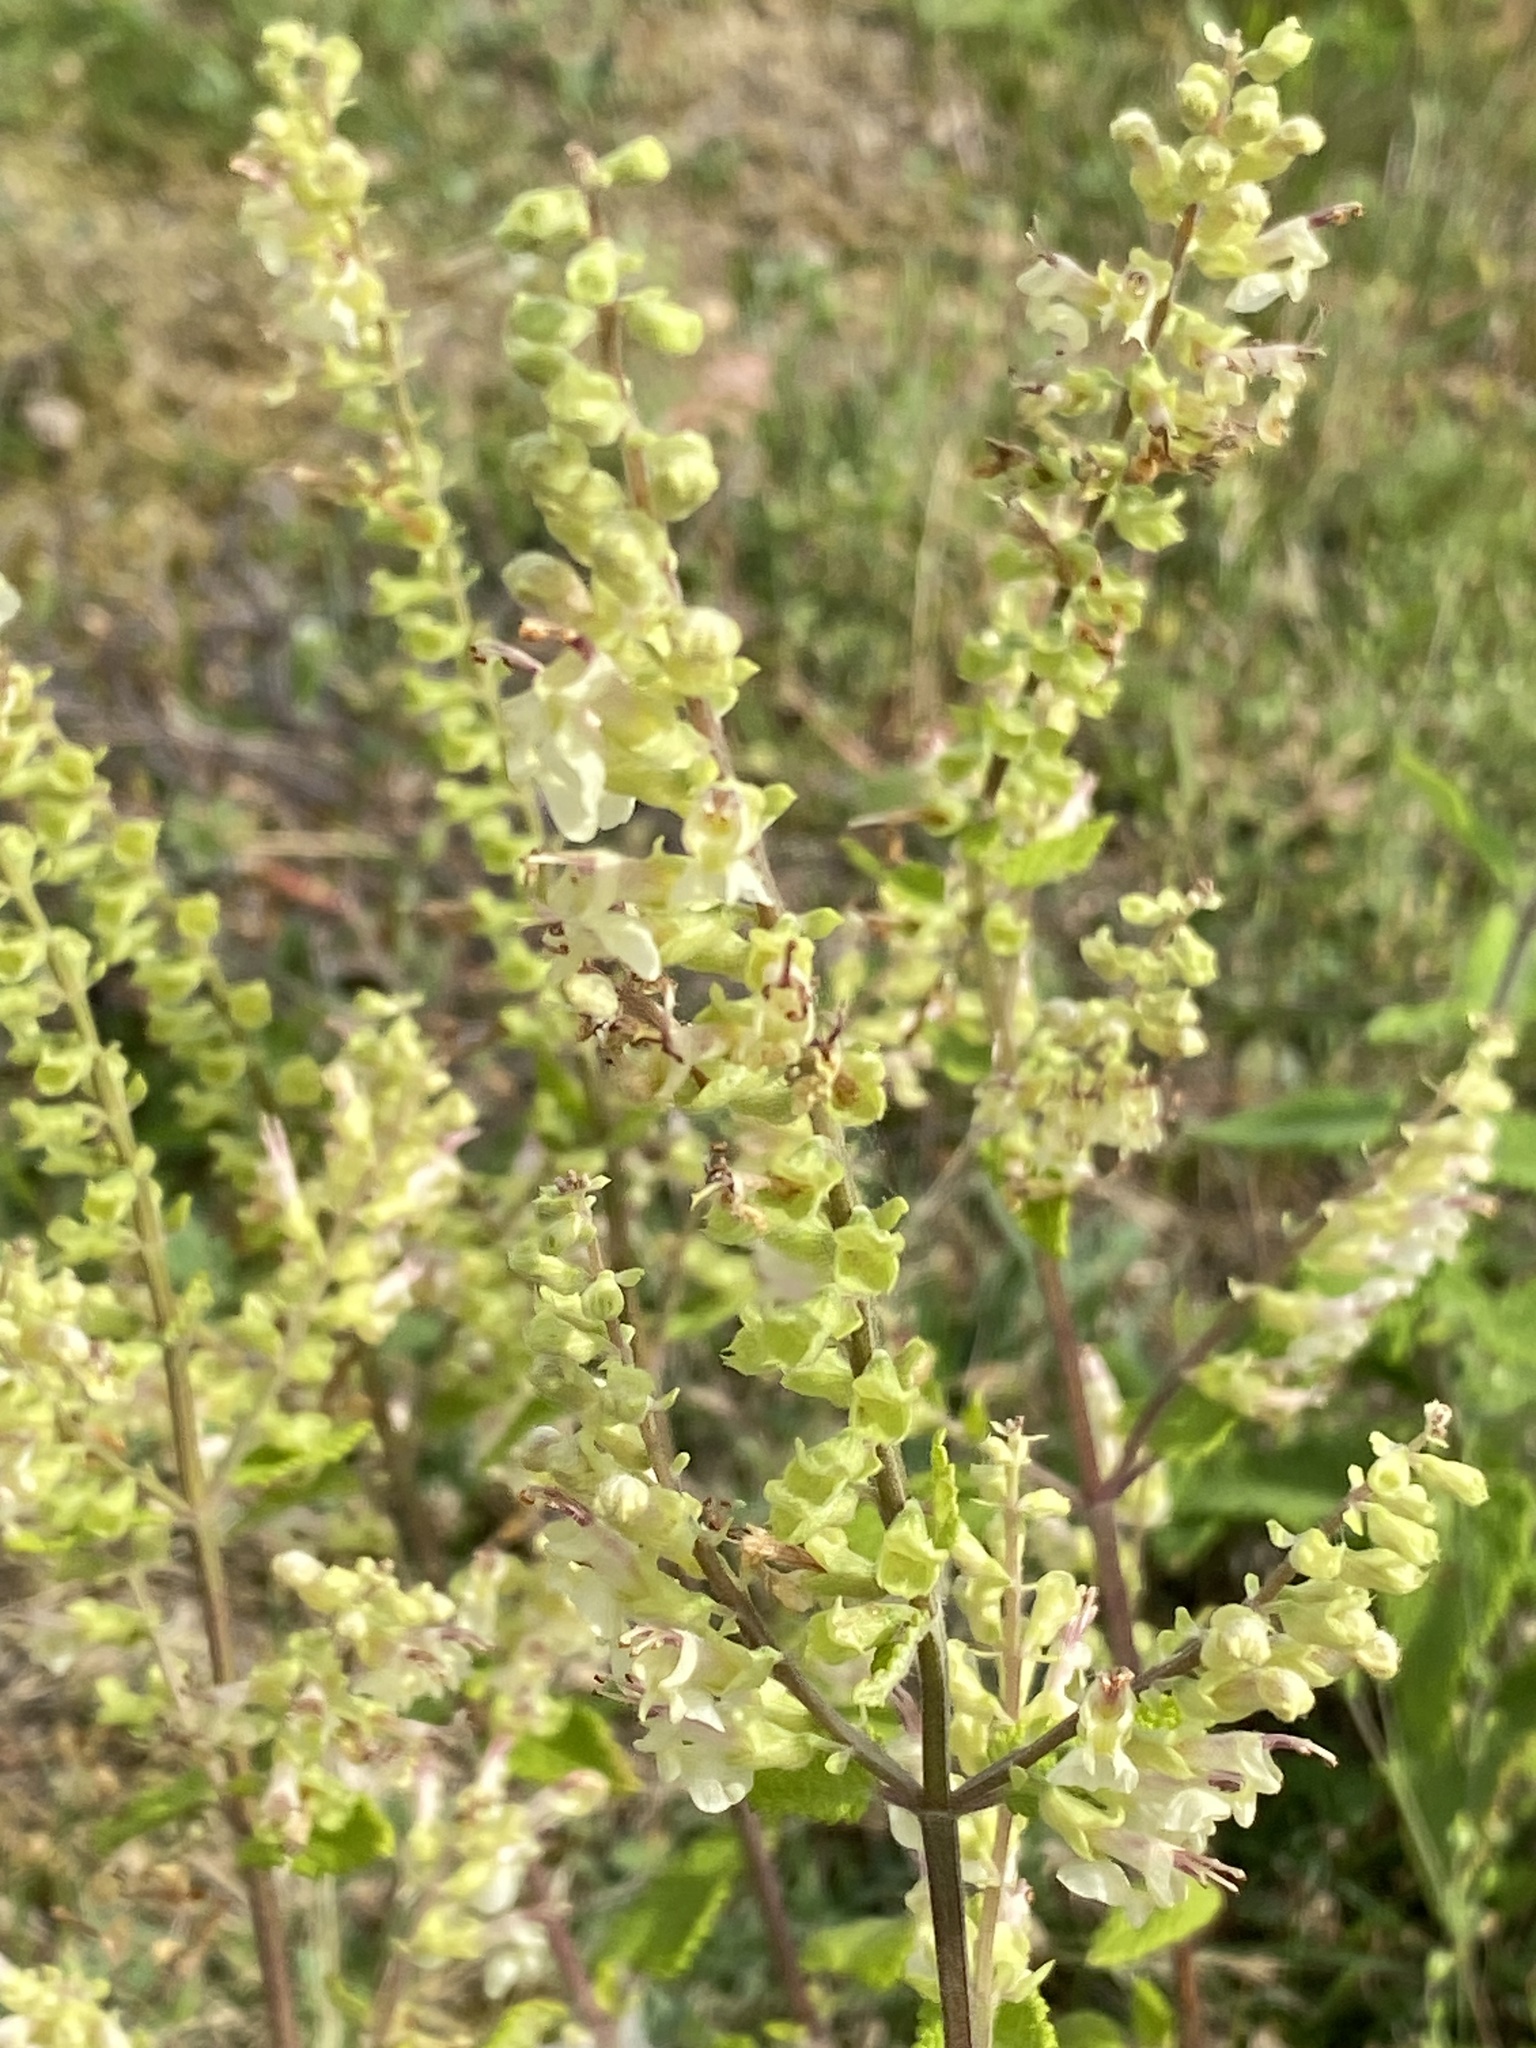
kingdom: Plantae
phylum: Tracheophyta
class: Magnoliopsida
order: Lamiales
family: Lamiaceae
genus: Teucrium
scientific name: Teucrium scorodonia
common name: Woodland germander
